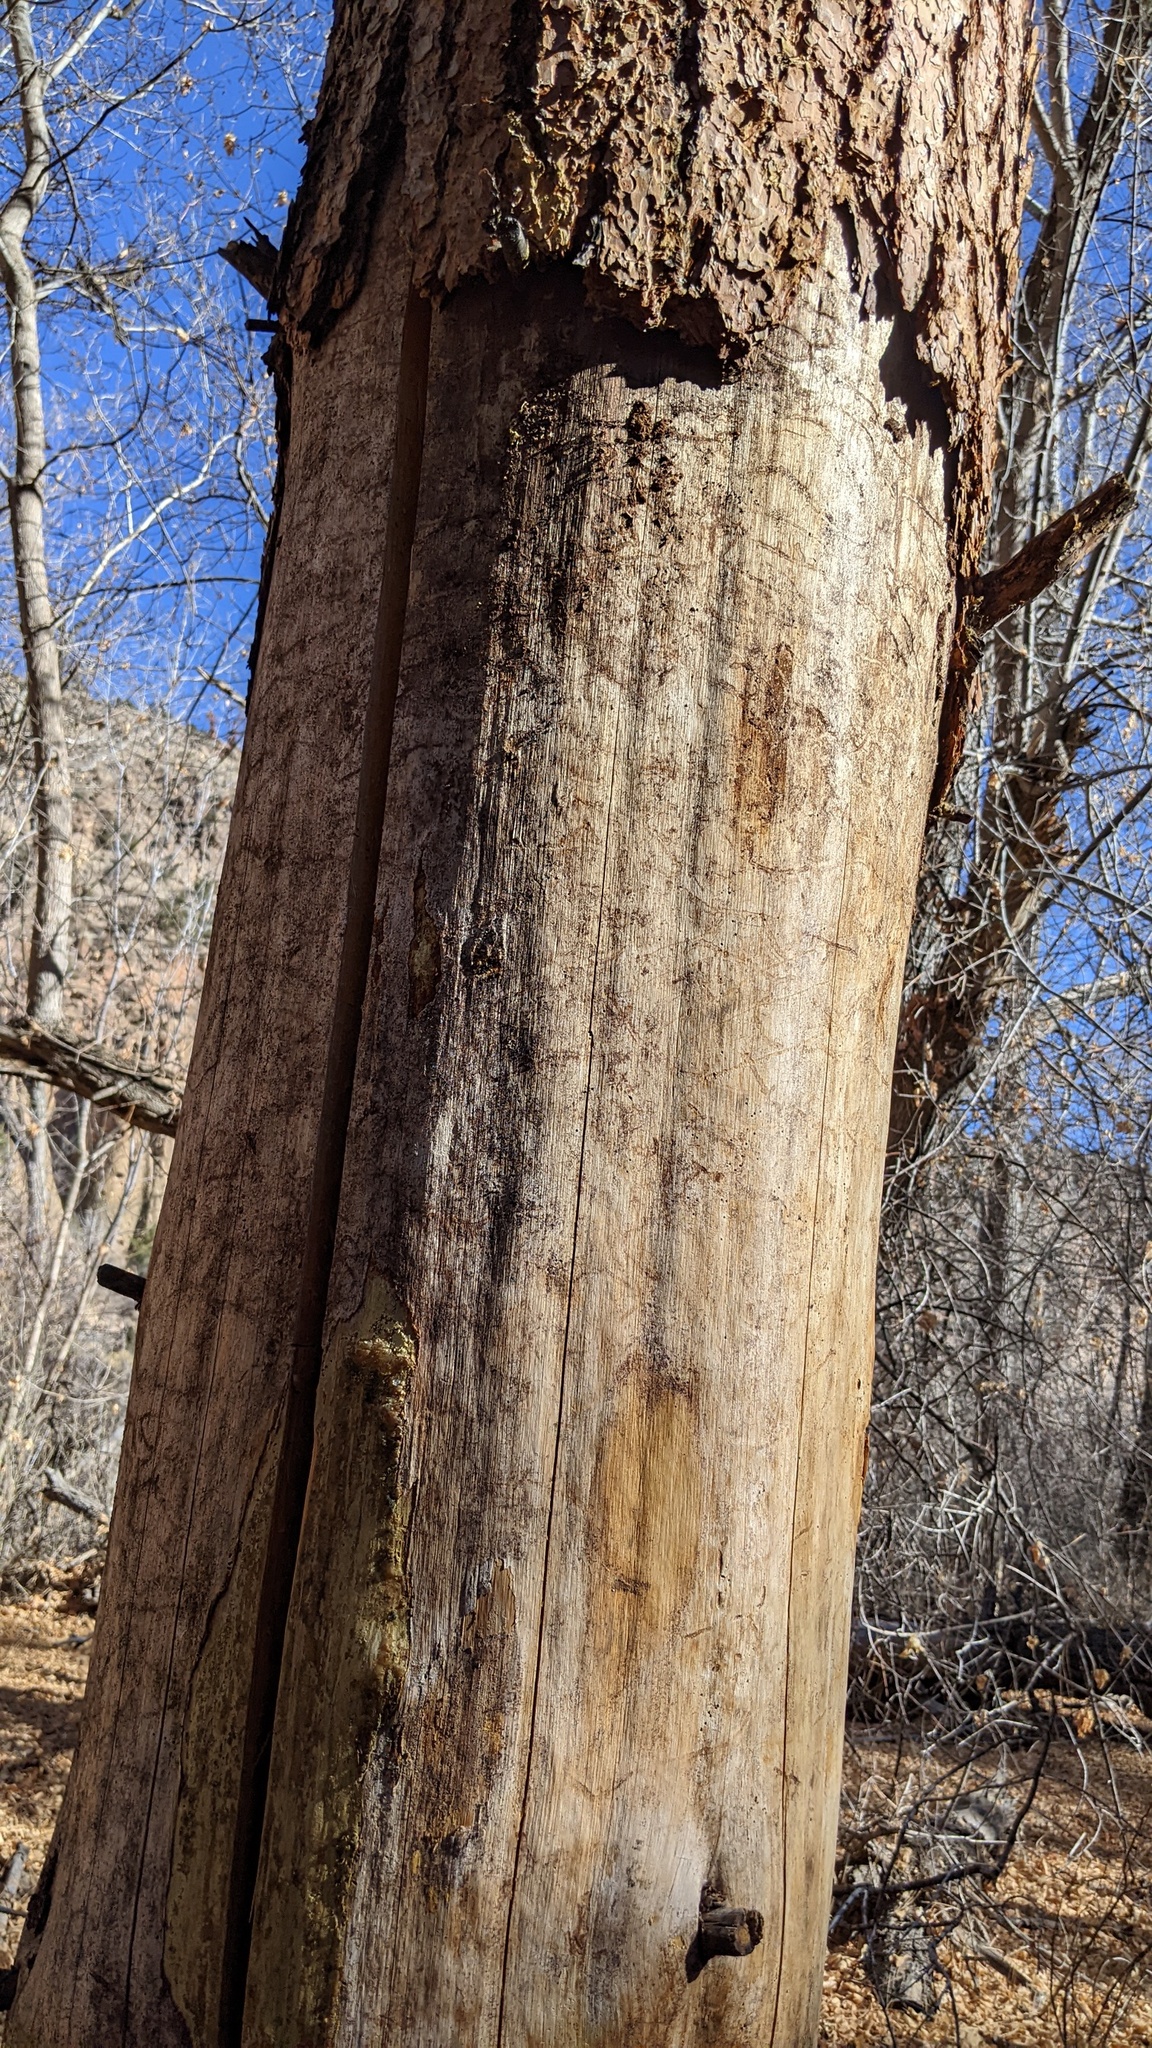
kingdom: Plantae
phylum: Tracheophyta
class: Pinopsida
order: Pinales
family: Pinaceae
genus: Pinus
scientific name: Pinus ponderosa
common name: Western yellow-pine
